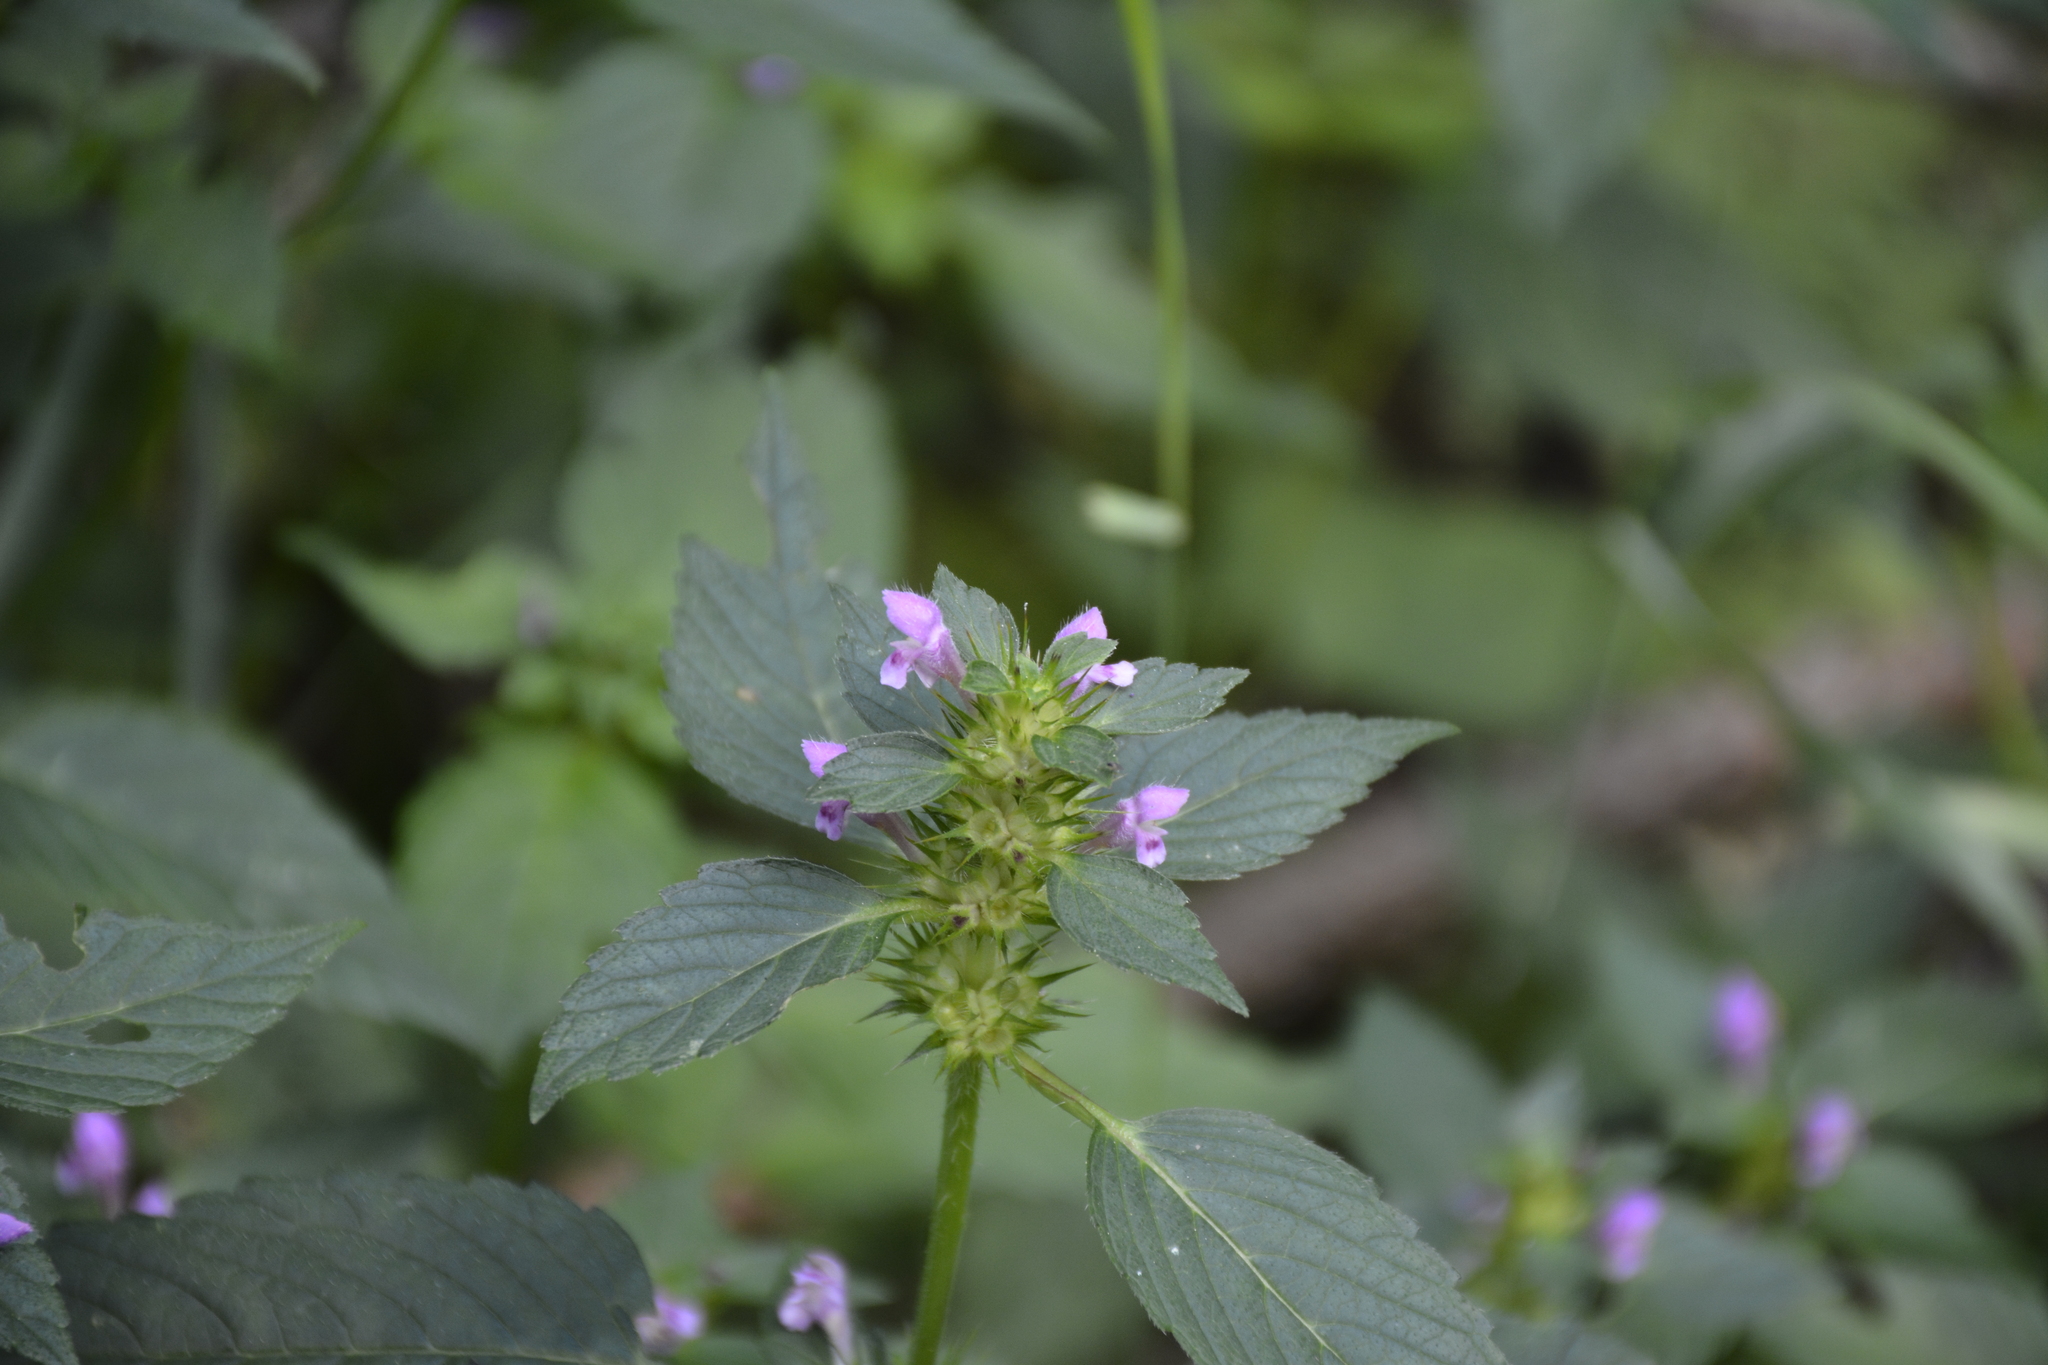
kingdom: Plantae
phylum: Tracheophyta
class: Magnoliopsida
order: Lamiales
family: Lamiaceae
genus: Galeopsis
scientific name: Galeopsis tetrahit
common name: Common hemp-nettle
